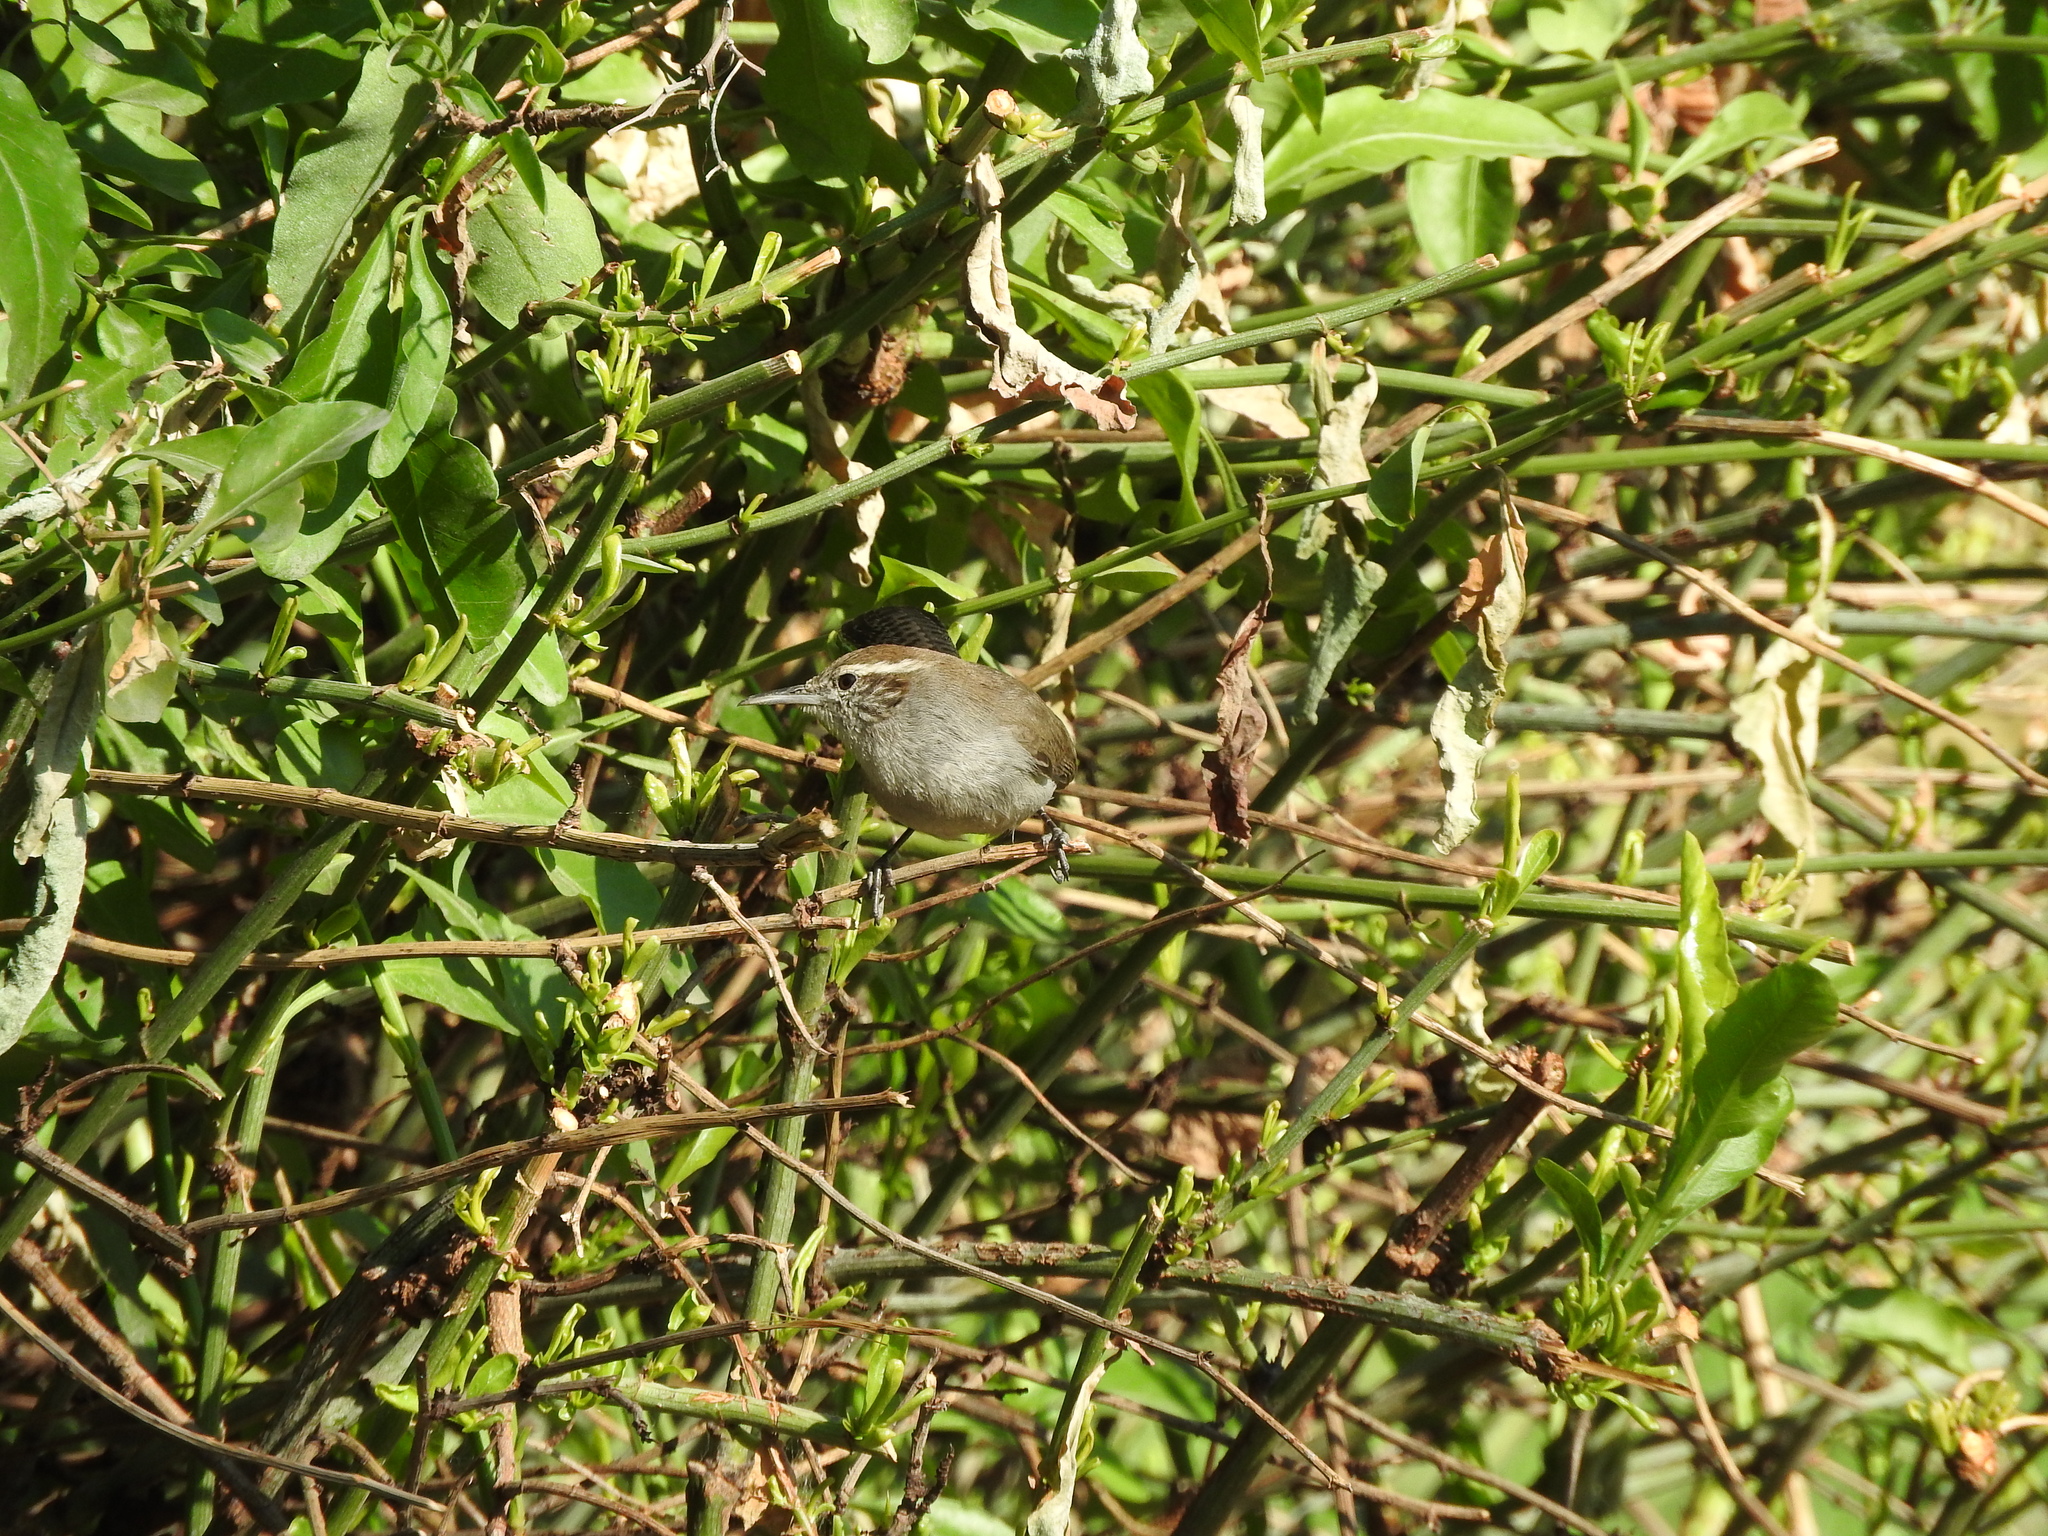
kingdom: Animalia
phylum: Chordata
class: Aves
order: Passeriformes
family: Troglodytidae
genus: Thryomanes
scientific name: Thryomanes bewickii
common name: Bewick's wren
